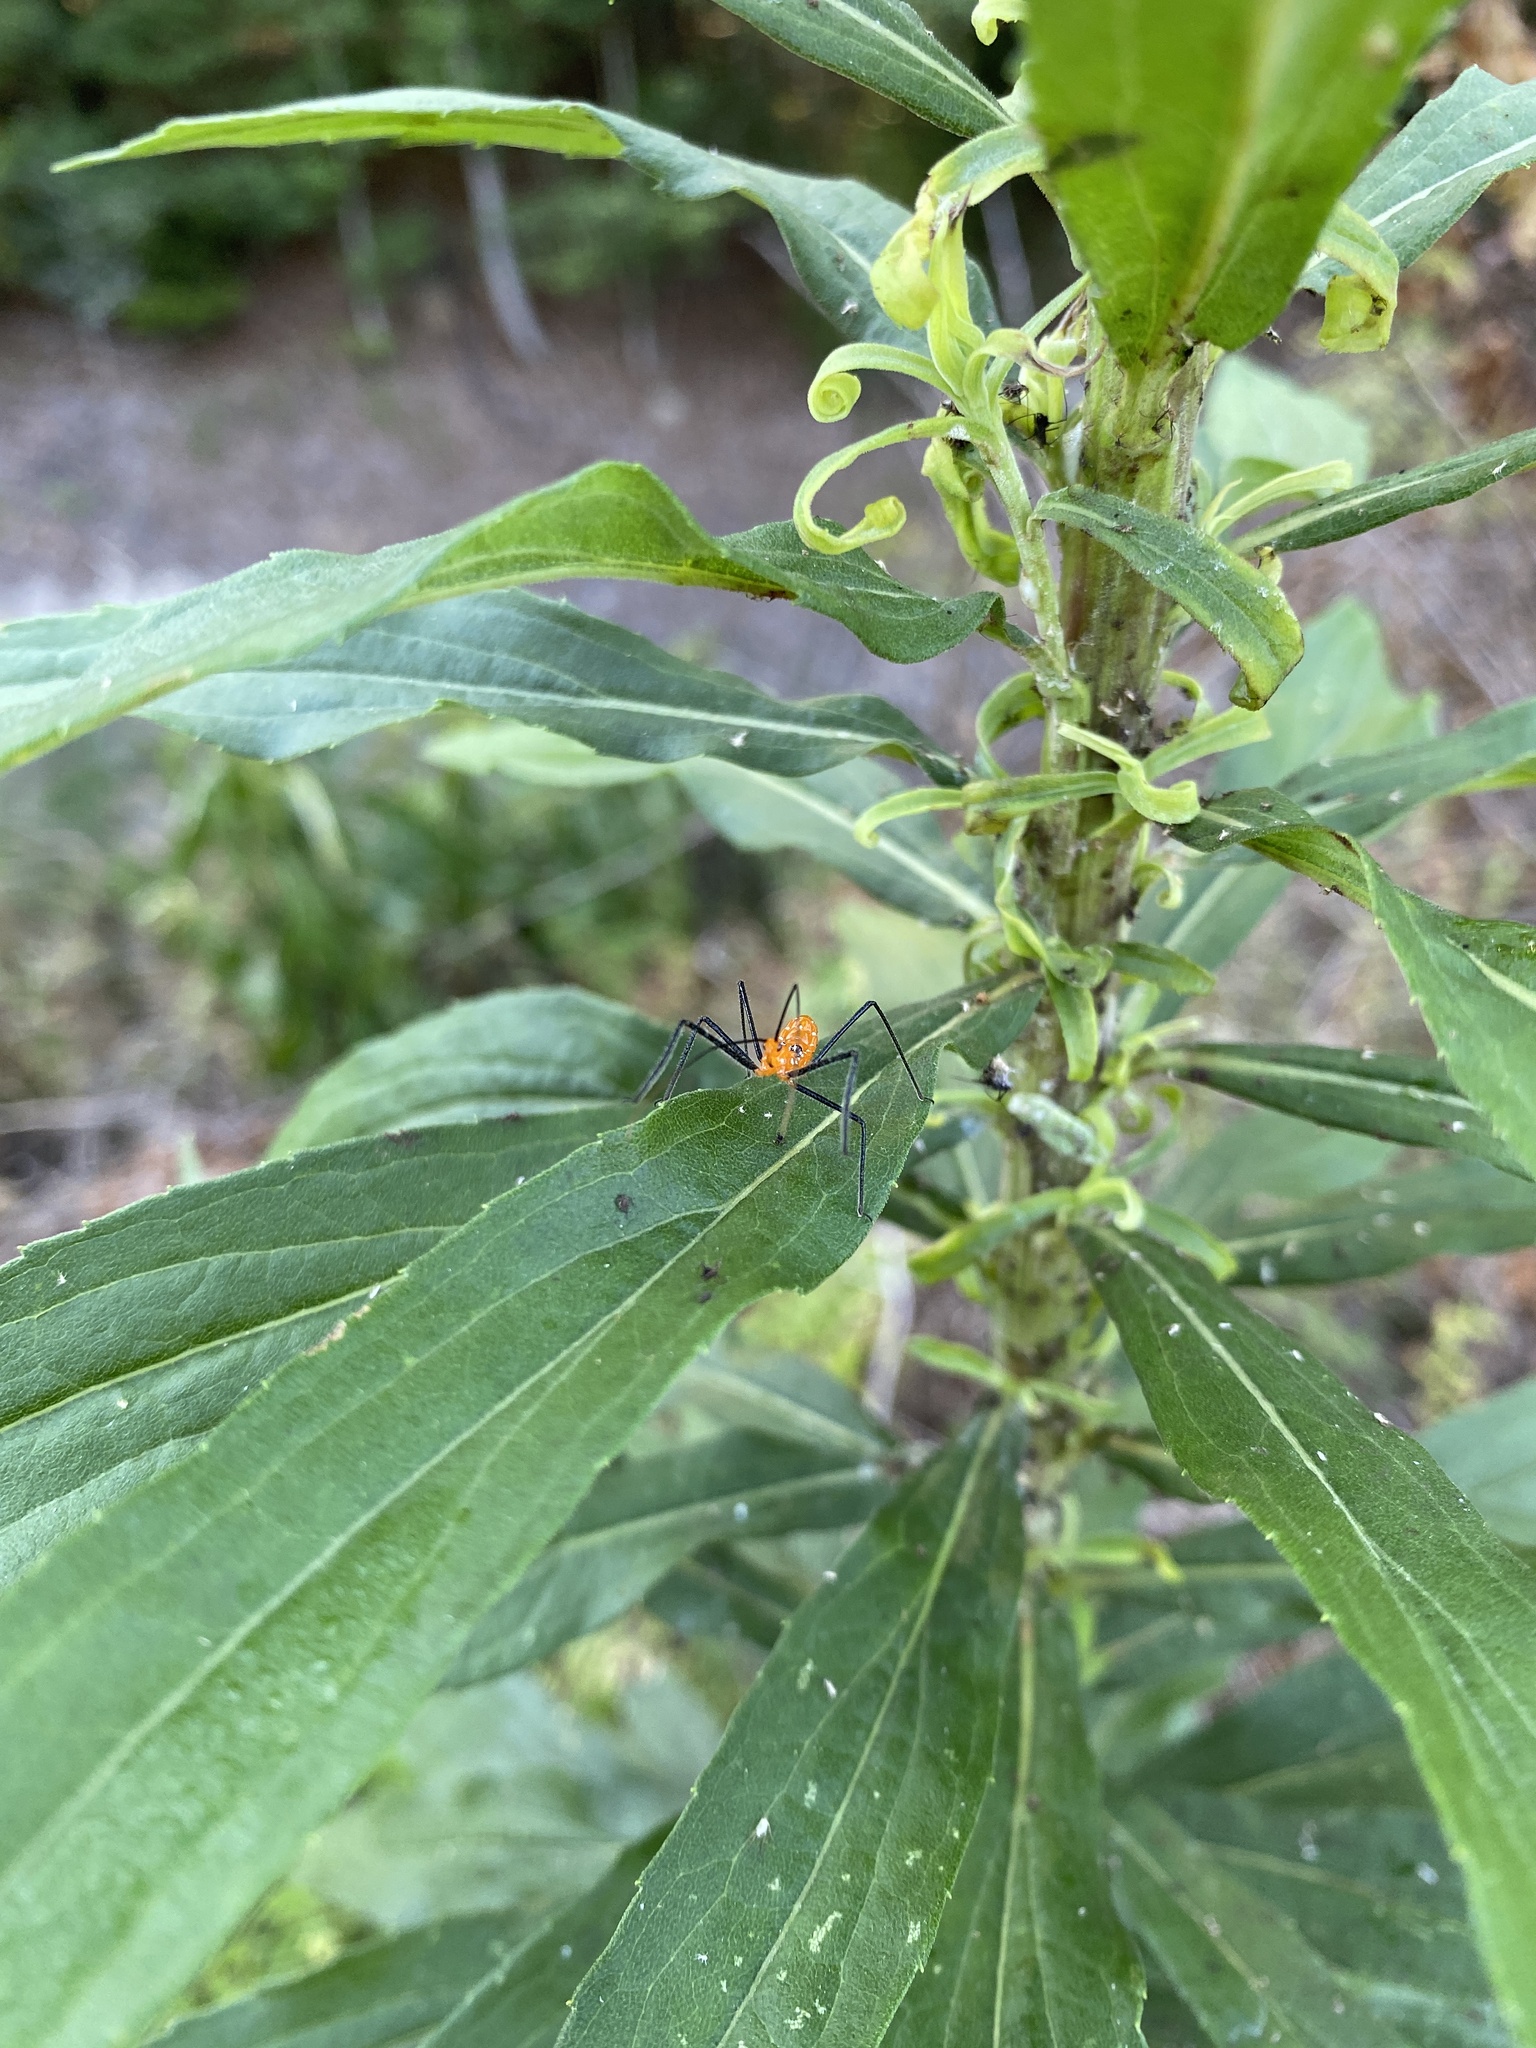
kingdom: Animalia
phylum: Arthropoda
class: Insecta
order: Hemiptera
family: Reduviidae
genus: Zelus
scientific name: Zelus longipes
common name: Milkweed assassin bug
